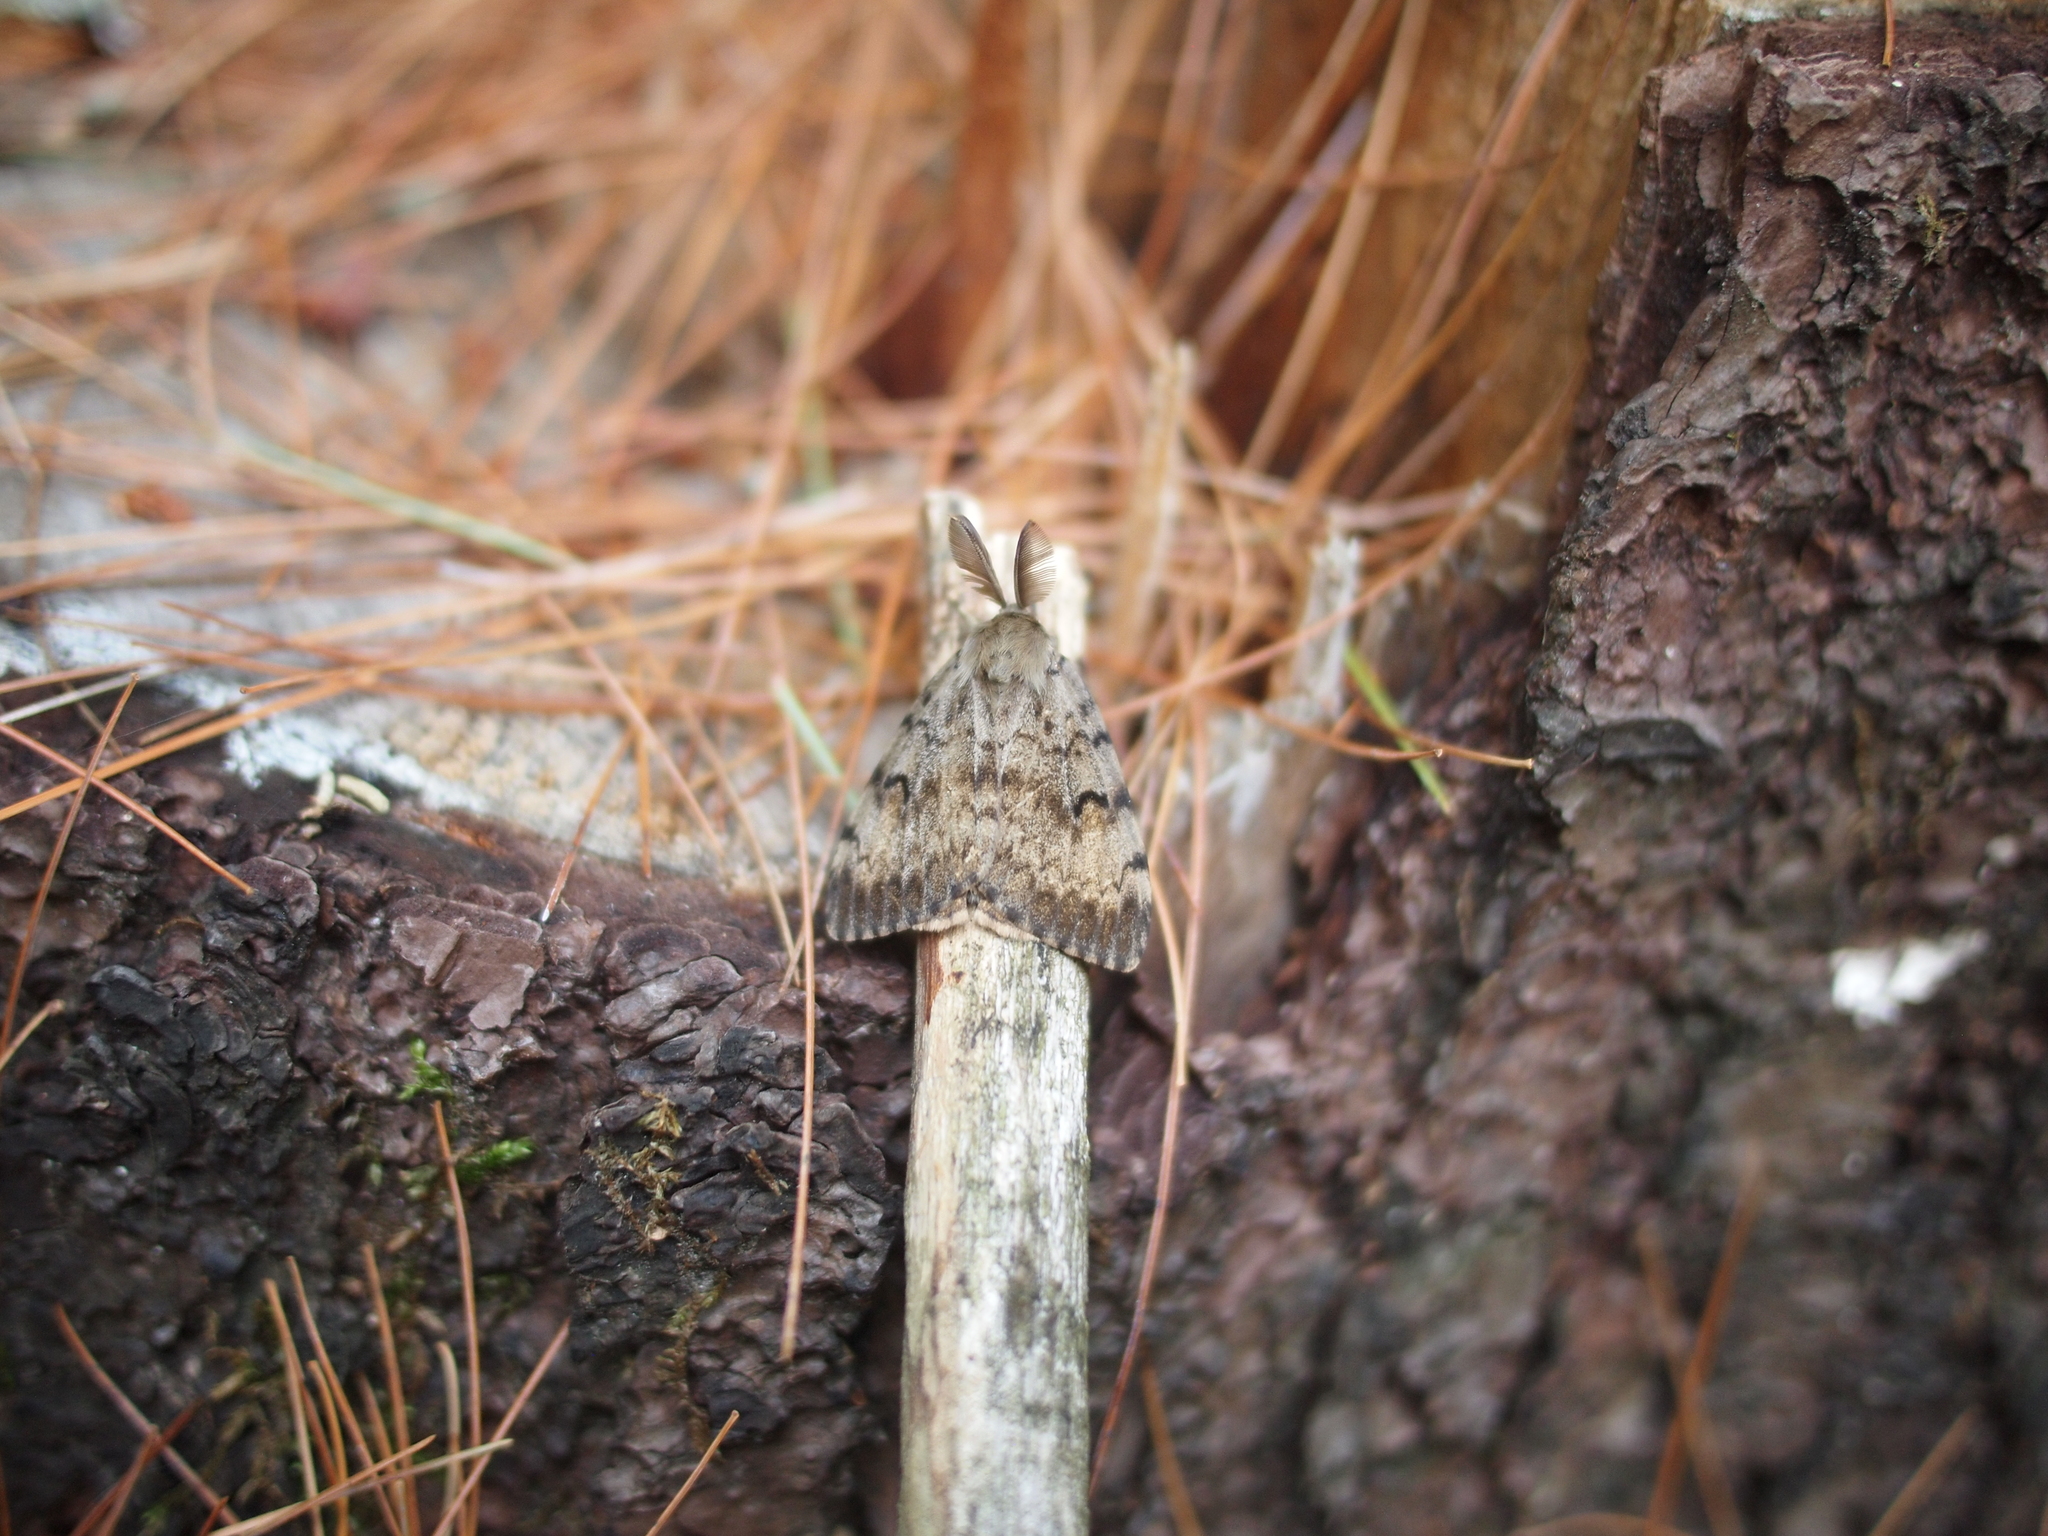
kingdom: Animalia
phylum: Arthropoda
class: Insecta
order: Lepidoptera
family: Erebidae
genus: Lymantria
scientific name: Lymantria dispar
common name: Gypsy moth
